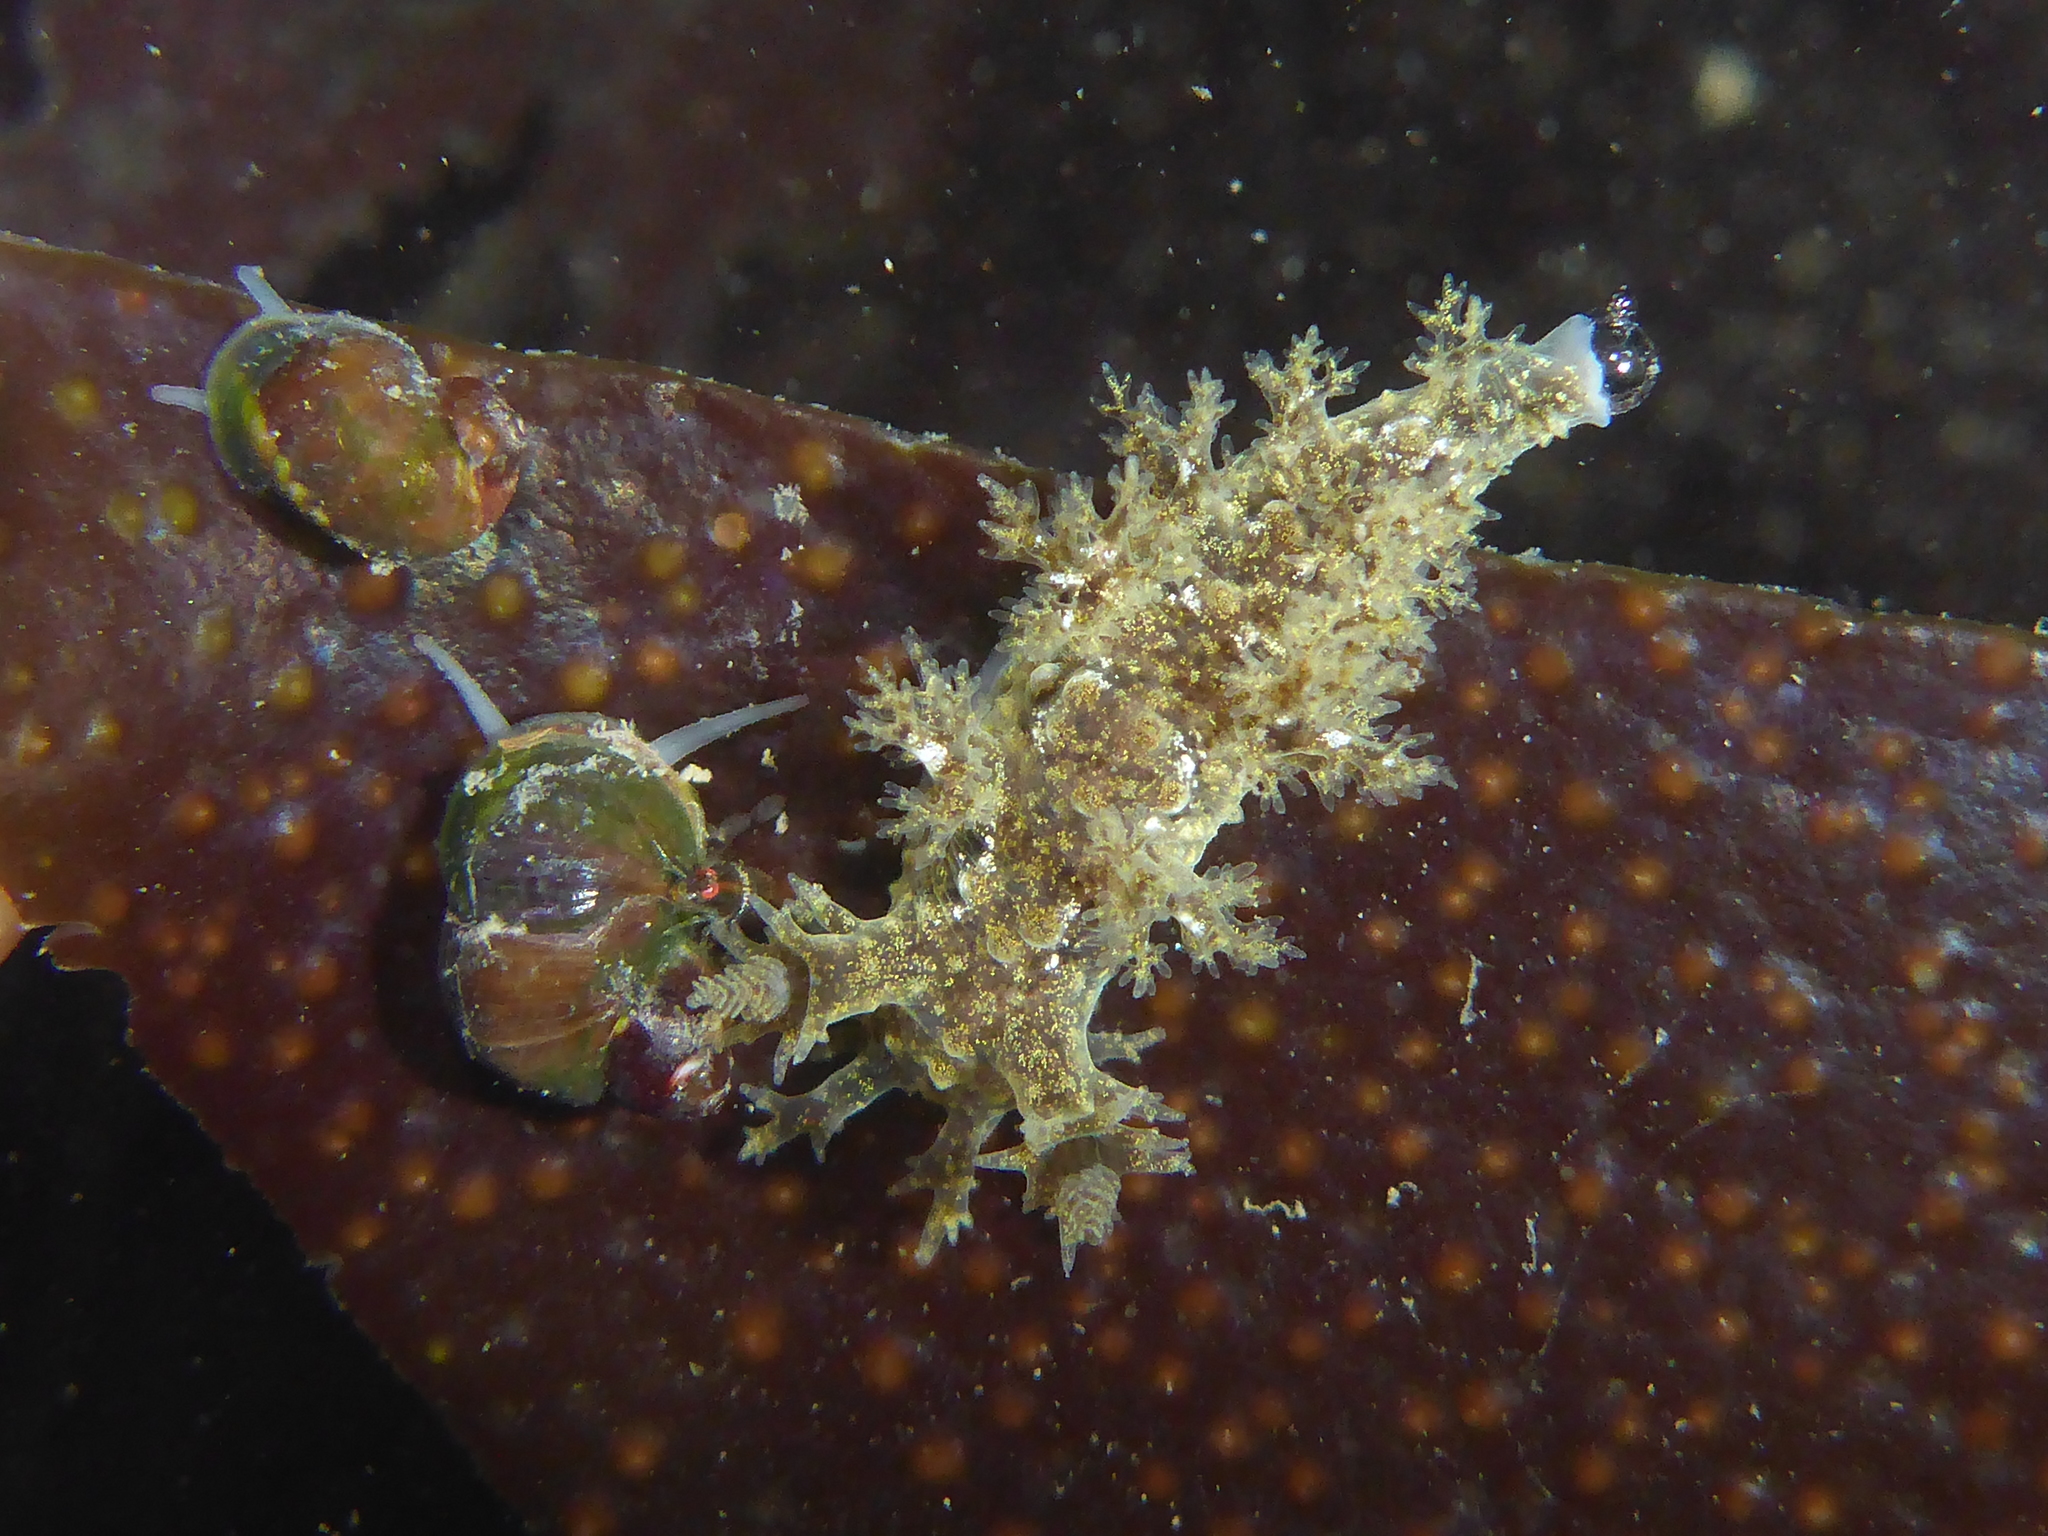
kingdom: Animalia
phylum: Mollusca
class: Gastropoda
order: Nudibranchia
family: Dendronotidae
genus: Dendronotus
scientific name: Dendronotus venustus
